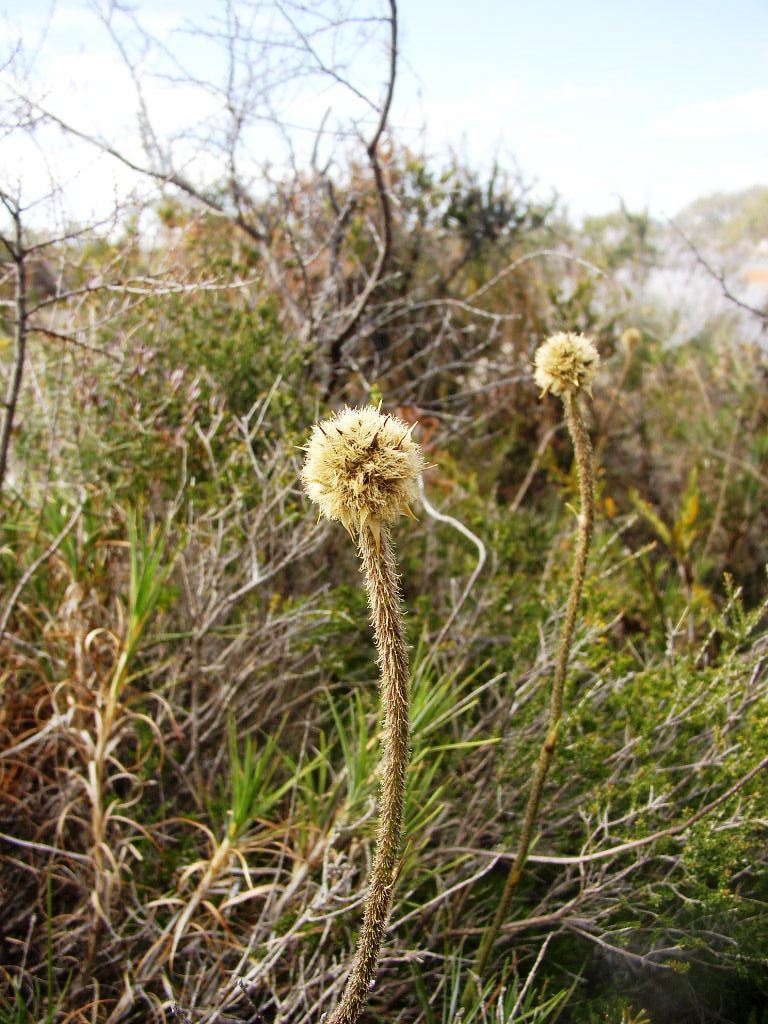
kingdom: Plantae
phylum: Tracheophyta
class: Liliopsida
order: Arecales
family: Dasypogonaceae
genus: Dasypogon
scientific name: Dasypogon bromeliifolius
